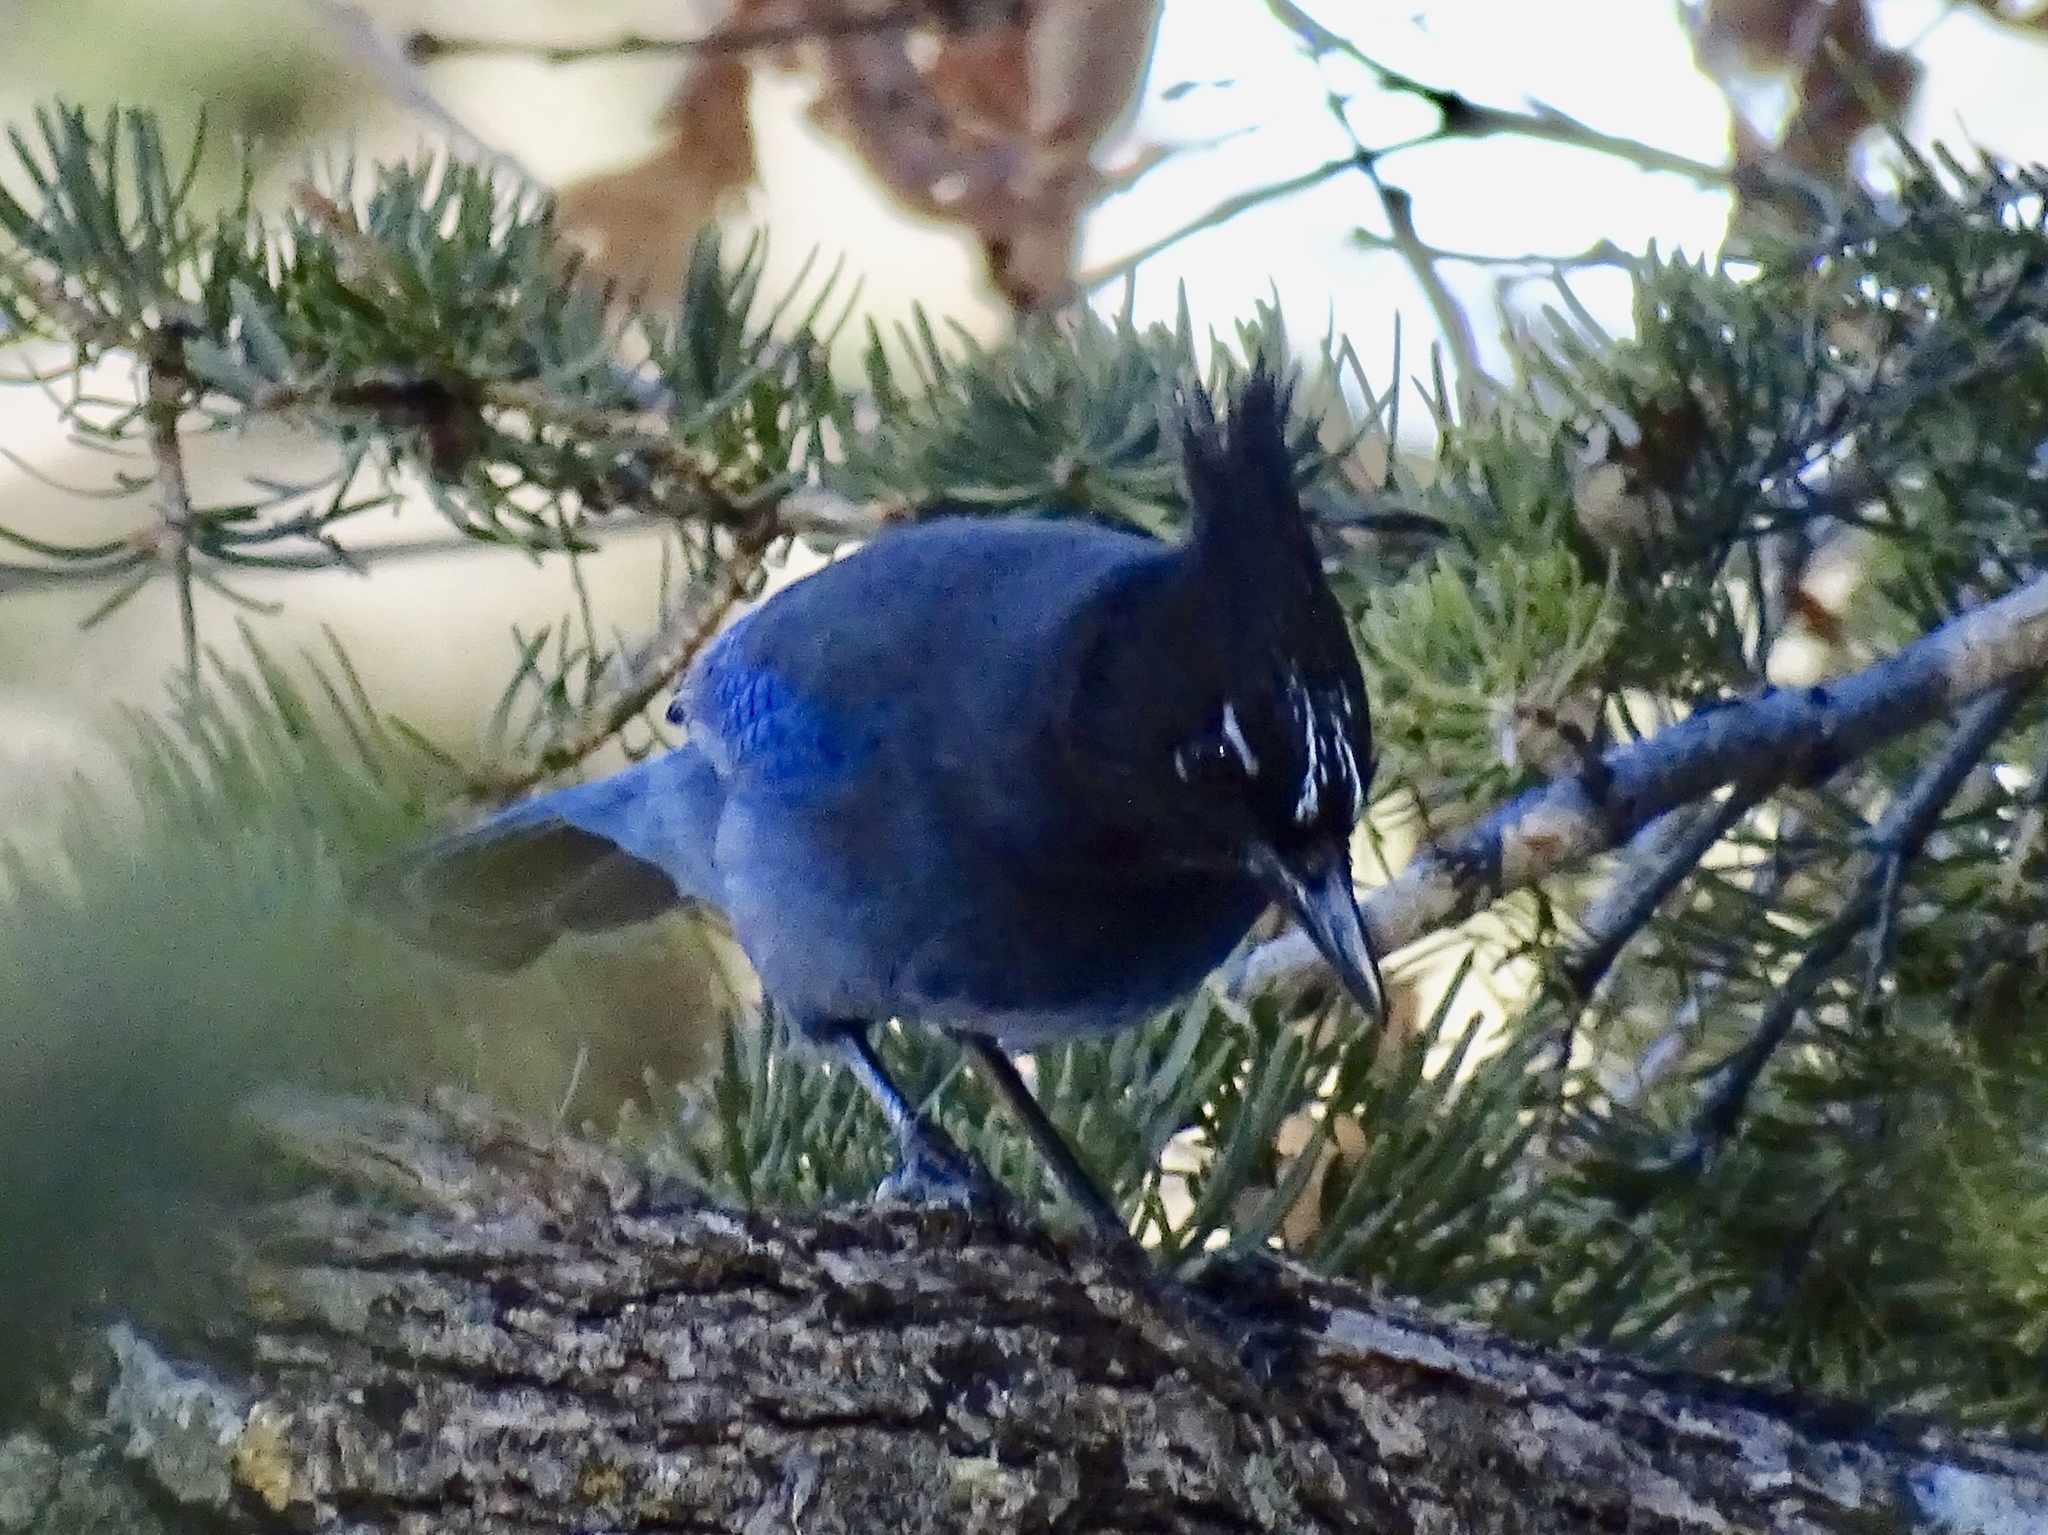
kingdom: Animalia
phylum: Chordata
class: Aves
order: Passeriformes
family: Corvidae
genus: Cyanocitta
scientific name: Cyanocitta stelleri
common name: Steller's jay
